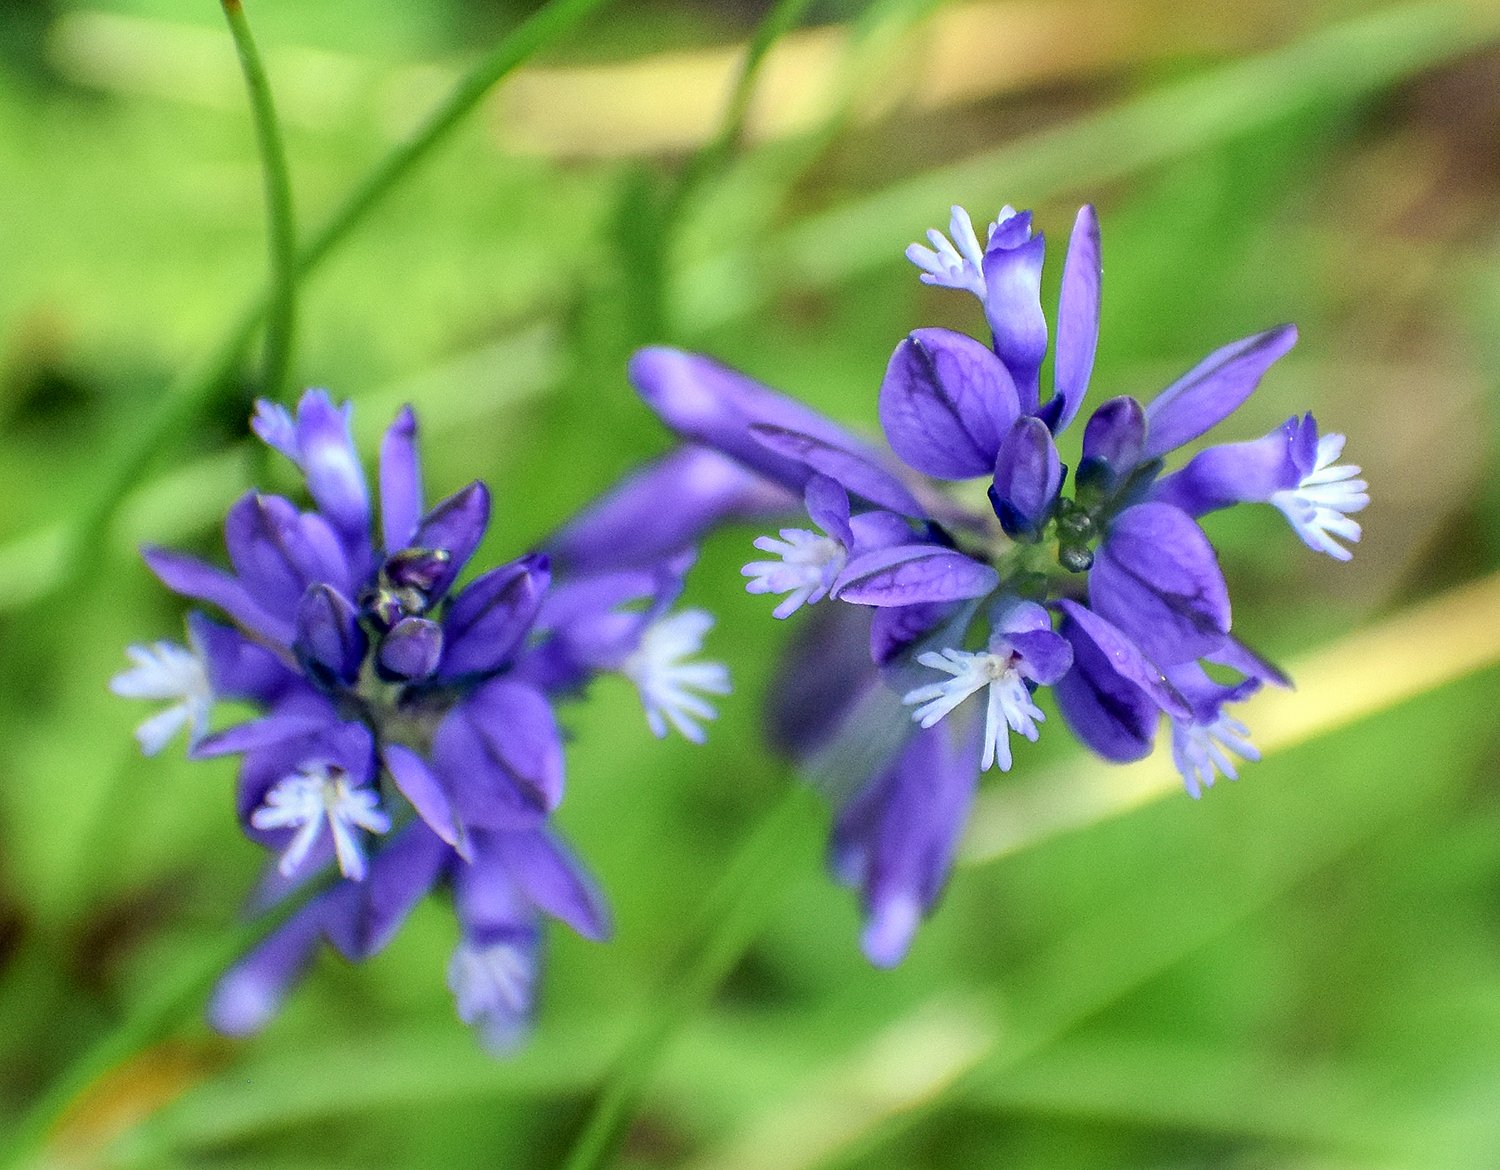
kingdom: Plantae
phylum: Tracheophyta
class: Magnoliopsida
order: Fabales
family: Polygalaceae
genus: Polygala
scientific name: Polygala alpestris
